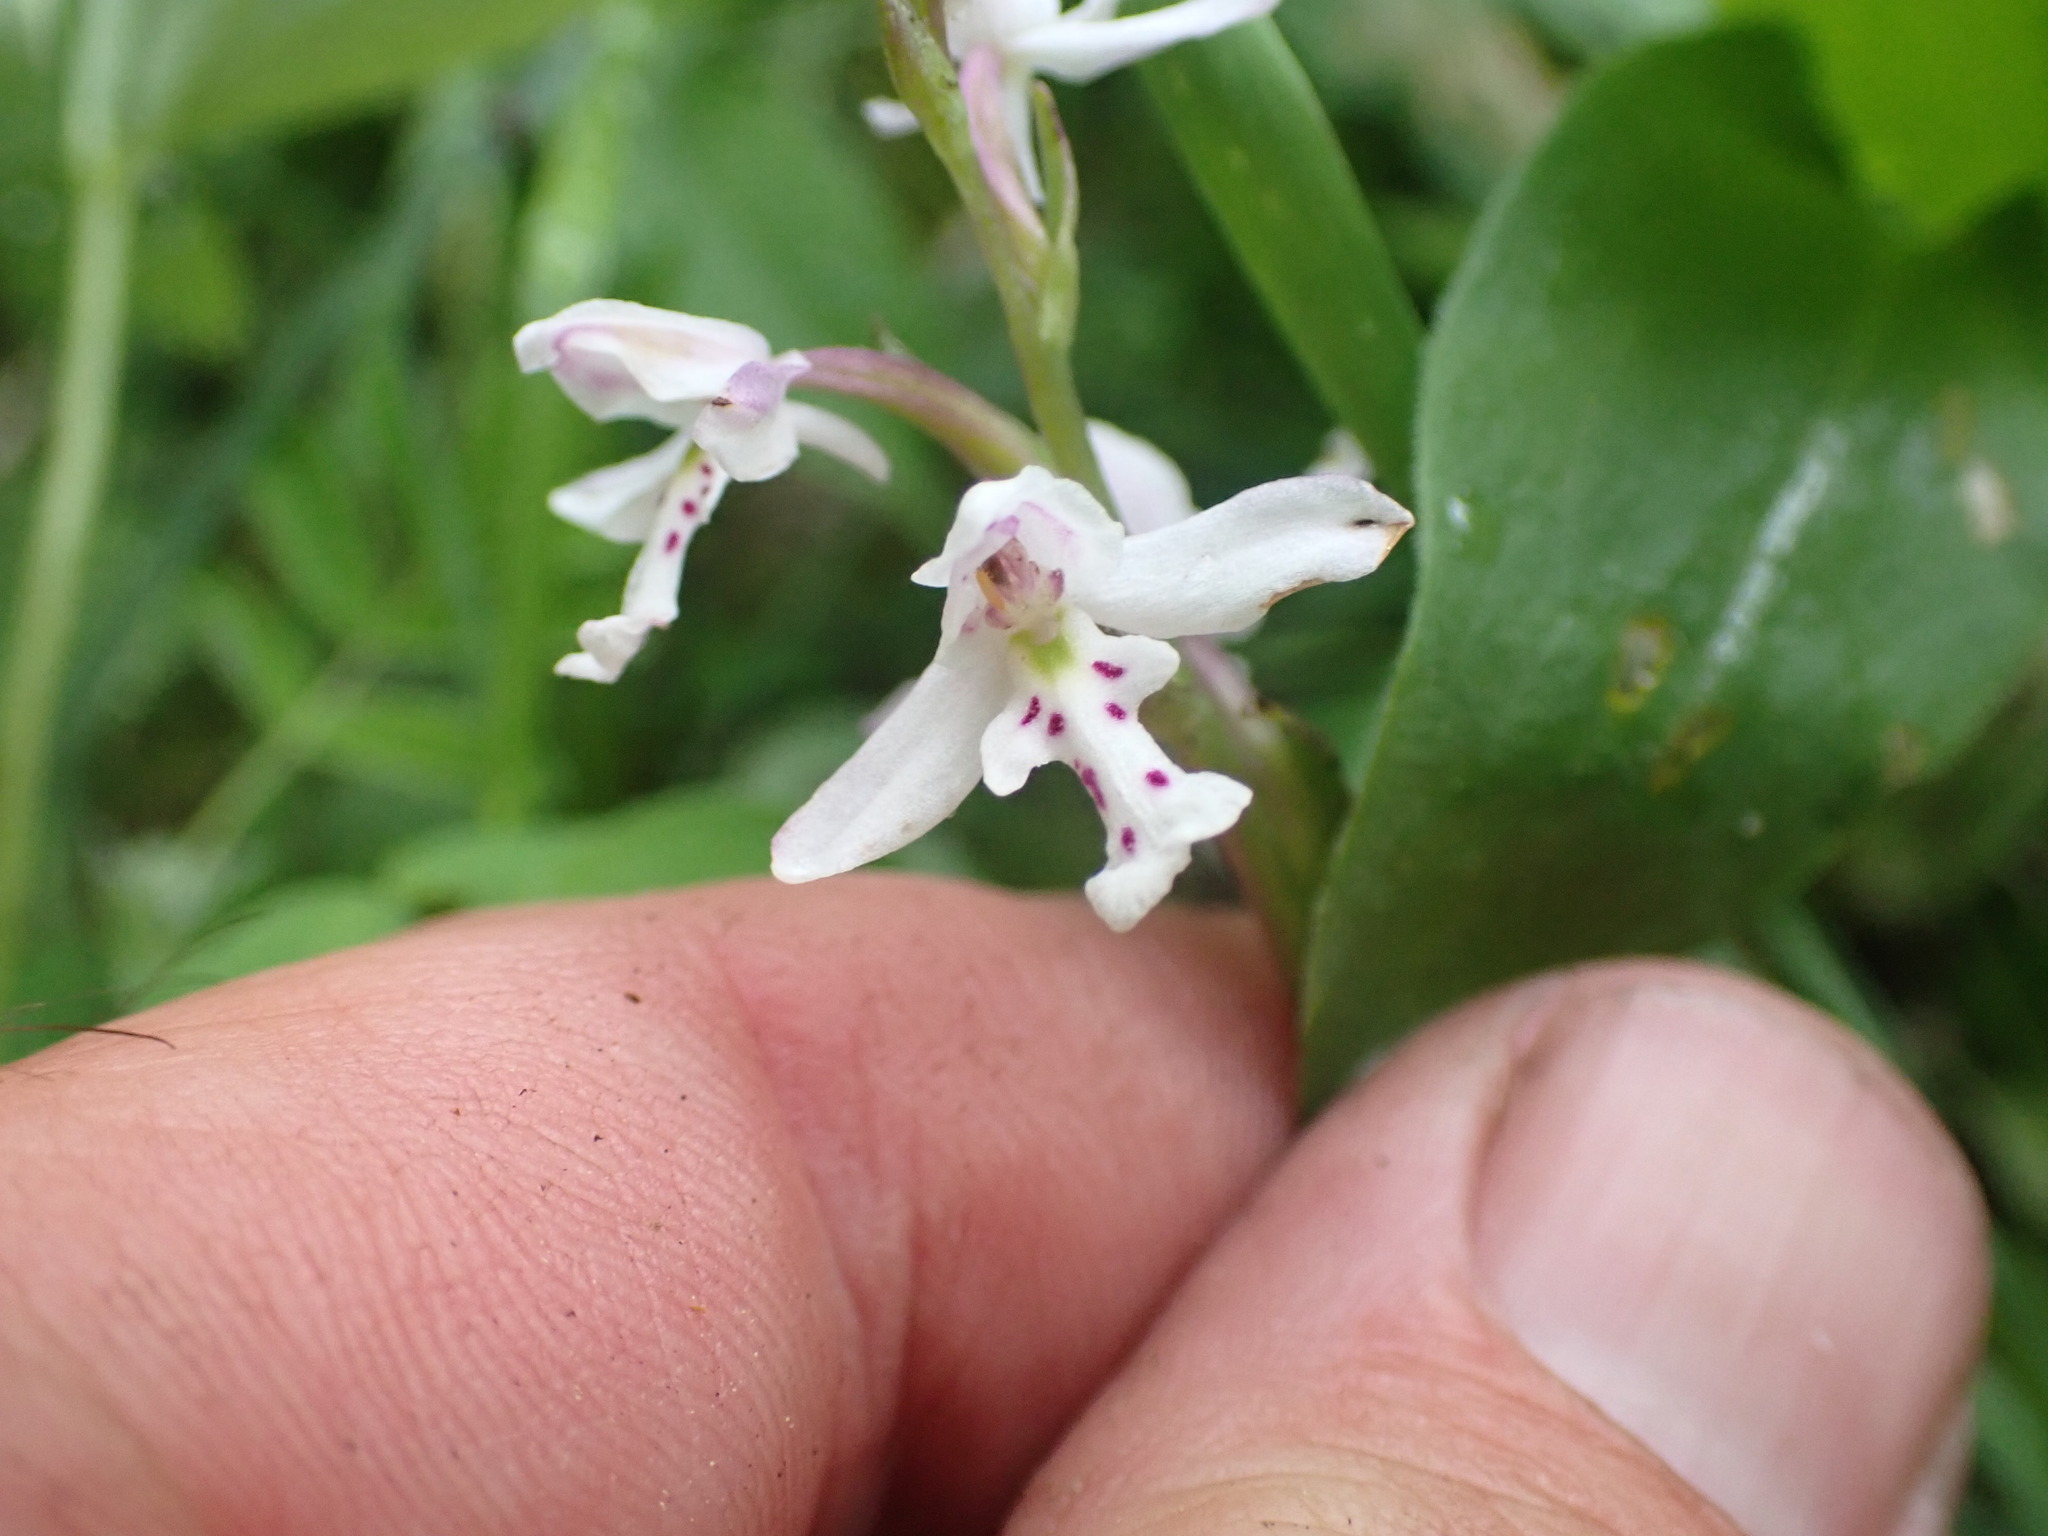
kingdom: Plantae
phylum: Tracheophyta
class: Liliopsida
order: Asparagales
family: Orchidaceae
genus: Galearis
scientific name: Galearis rotundifolia
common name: One-leaved orchis
